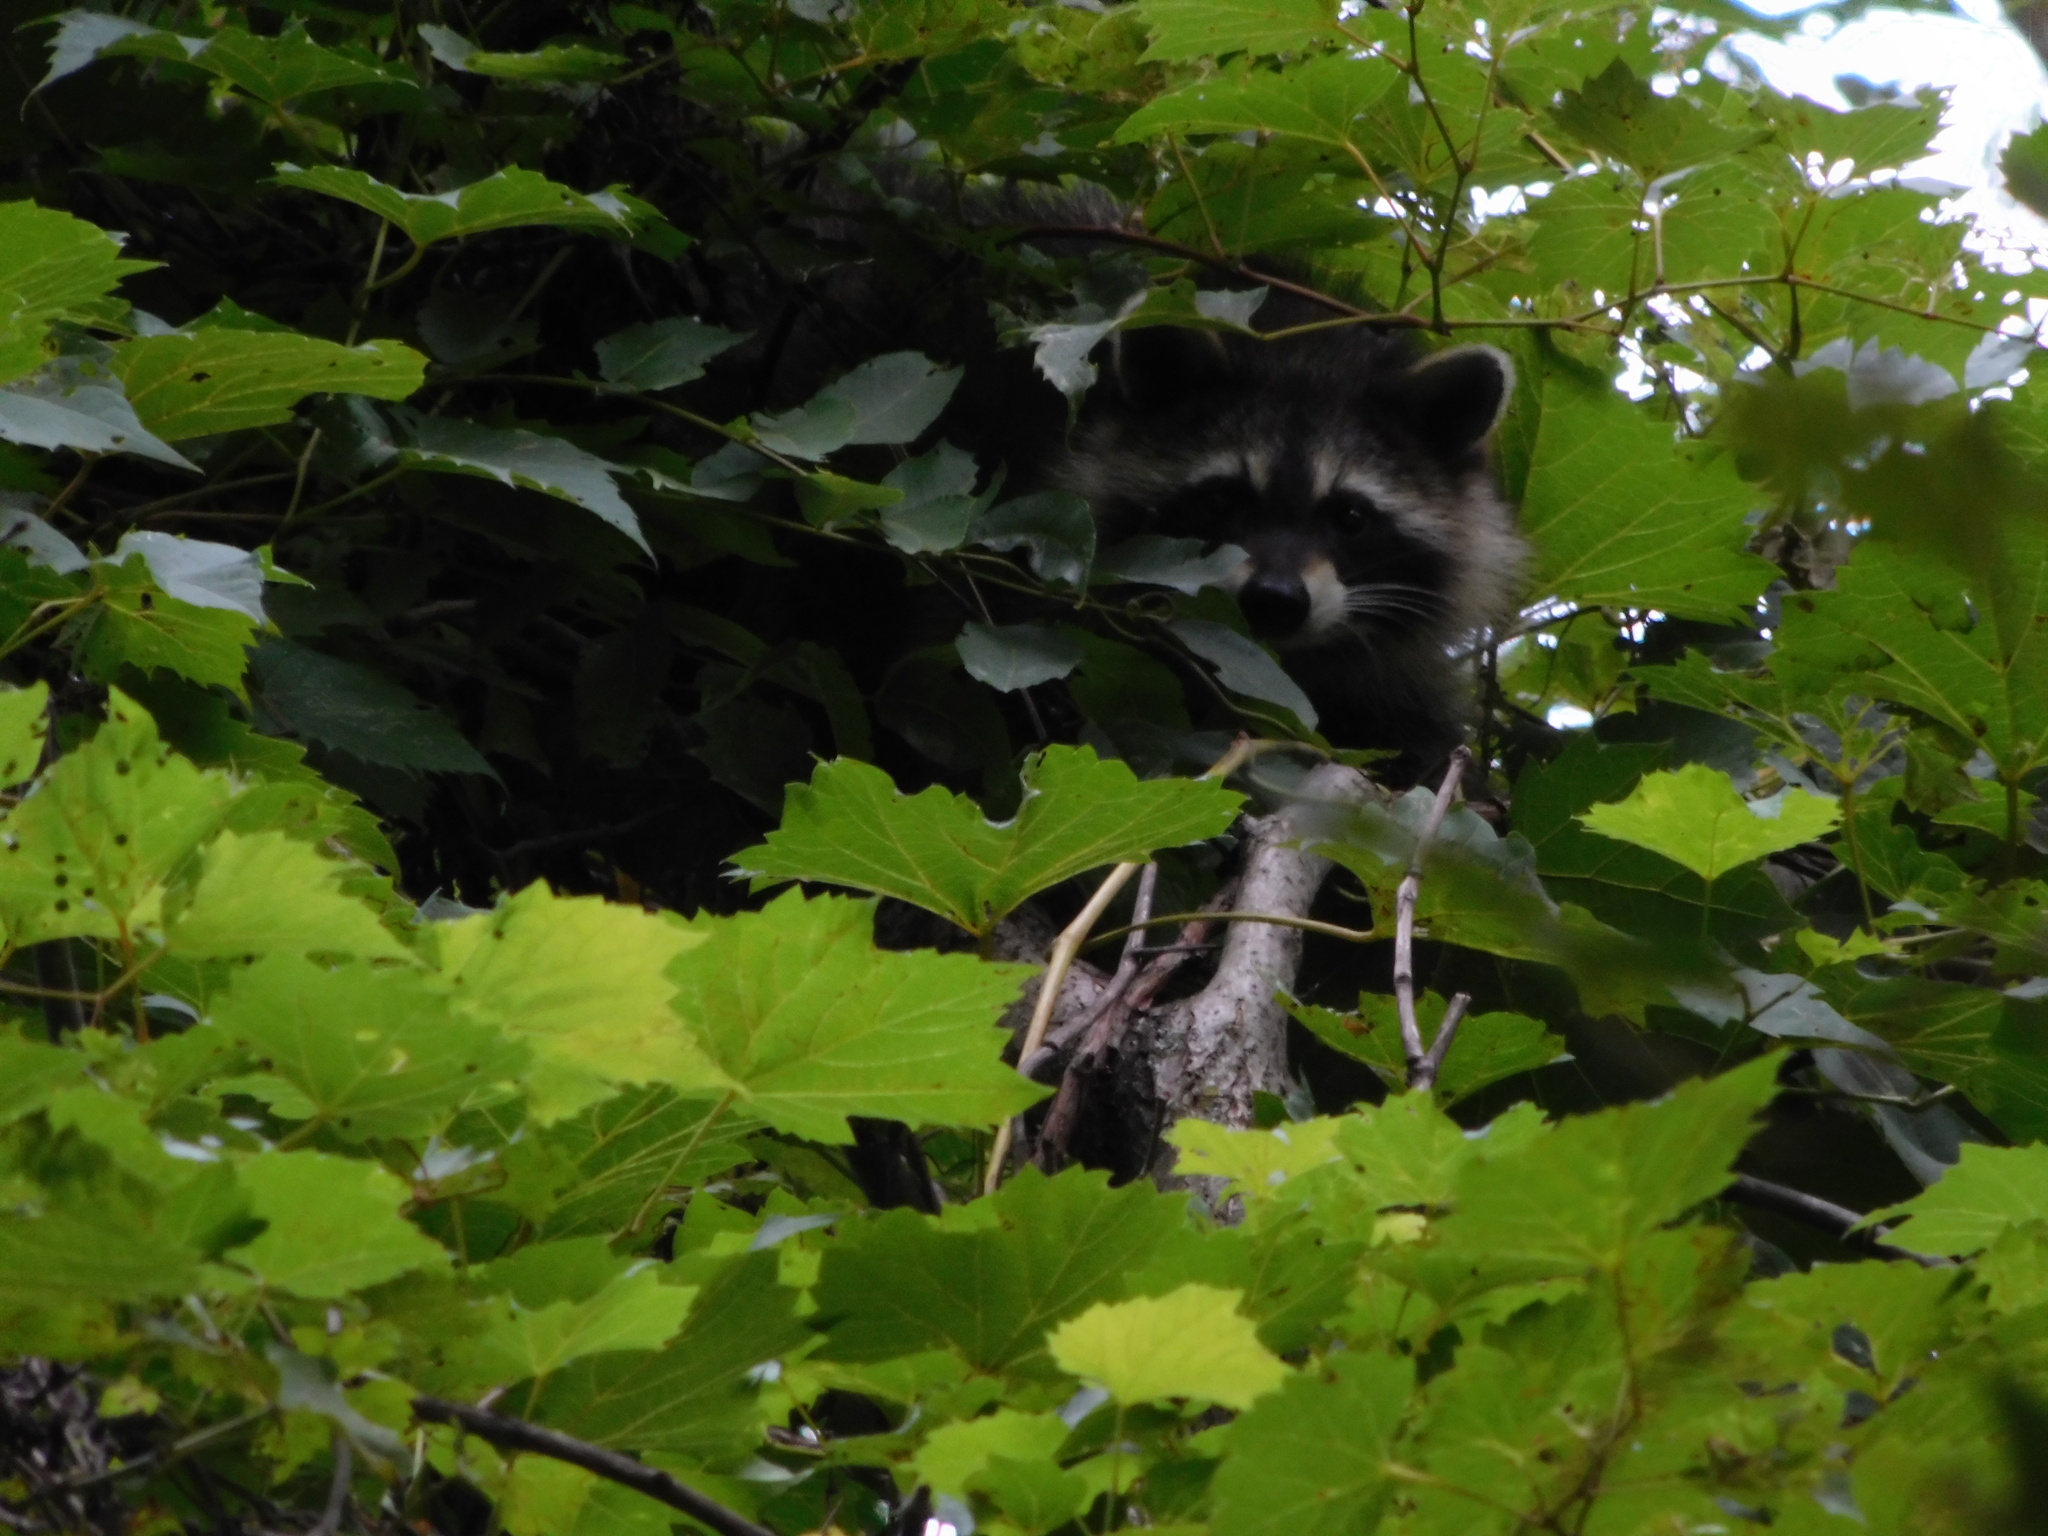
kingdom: Animalia
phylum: Chordata
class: Mammalia
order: Carnivora
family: Procyonidae
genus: Procyon
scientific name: Procyon lotor
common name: Raccoon
